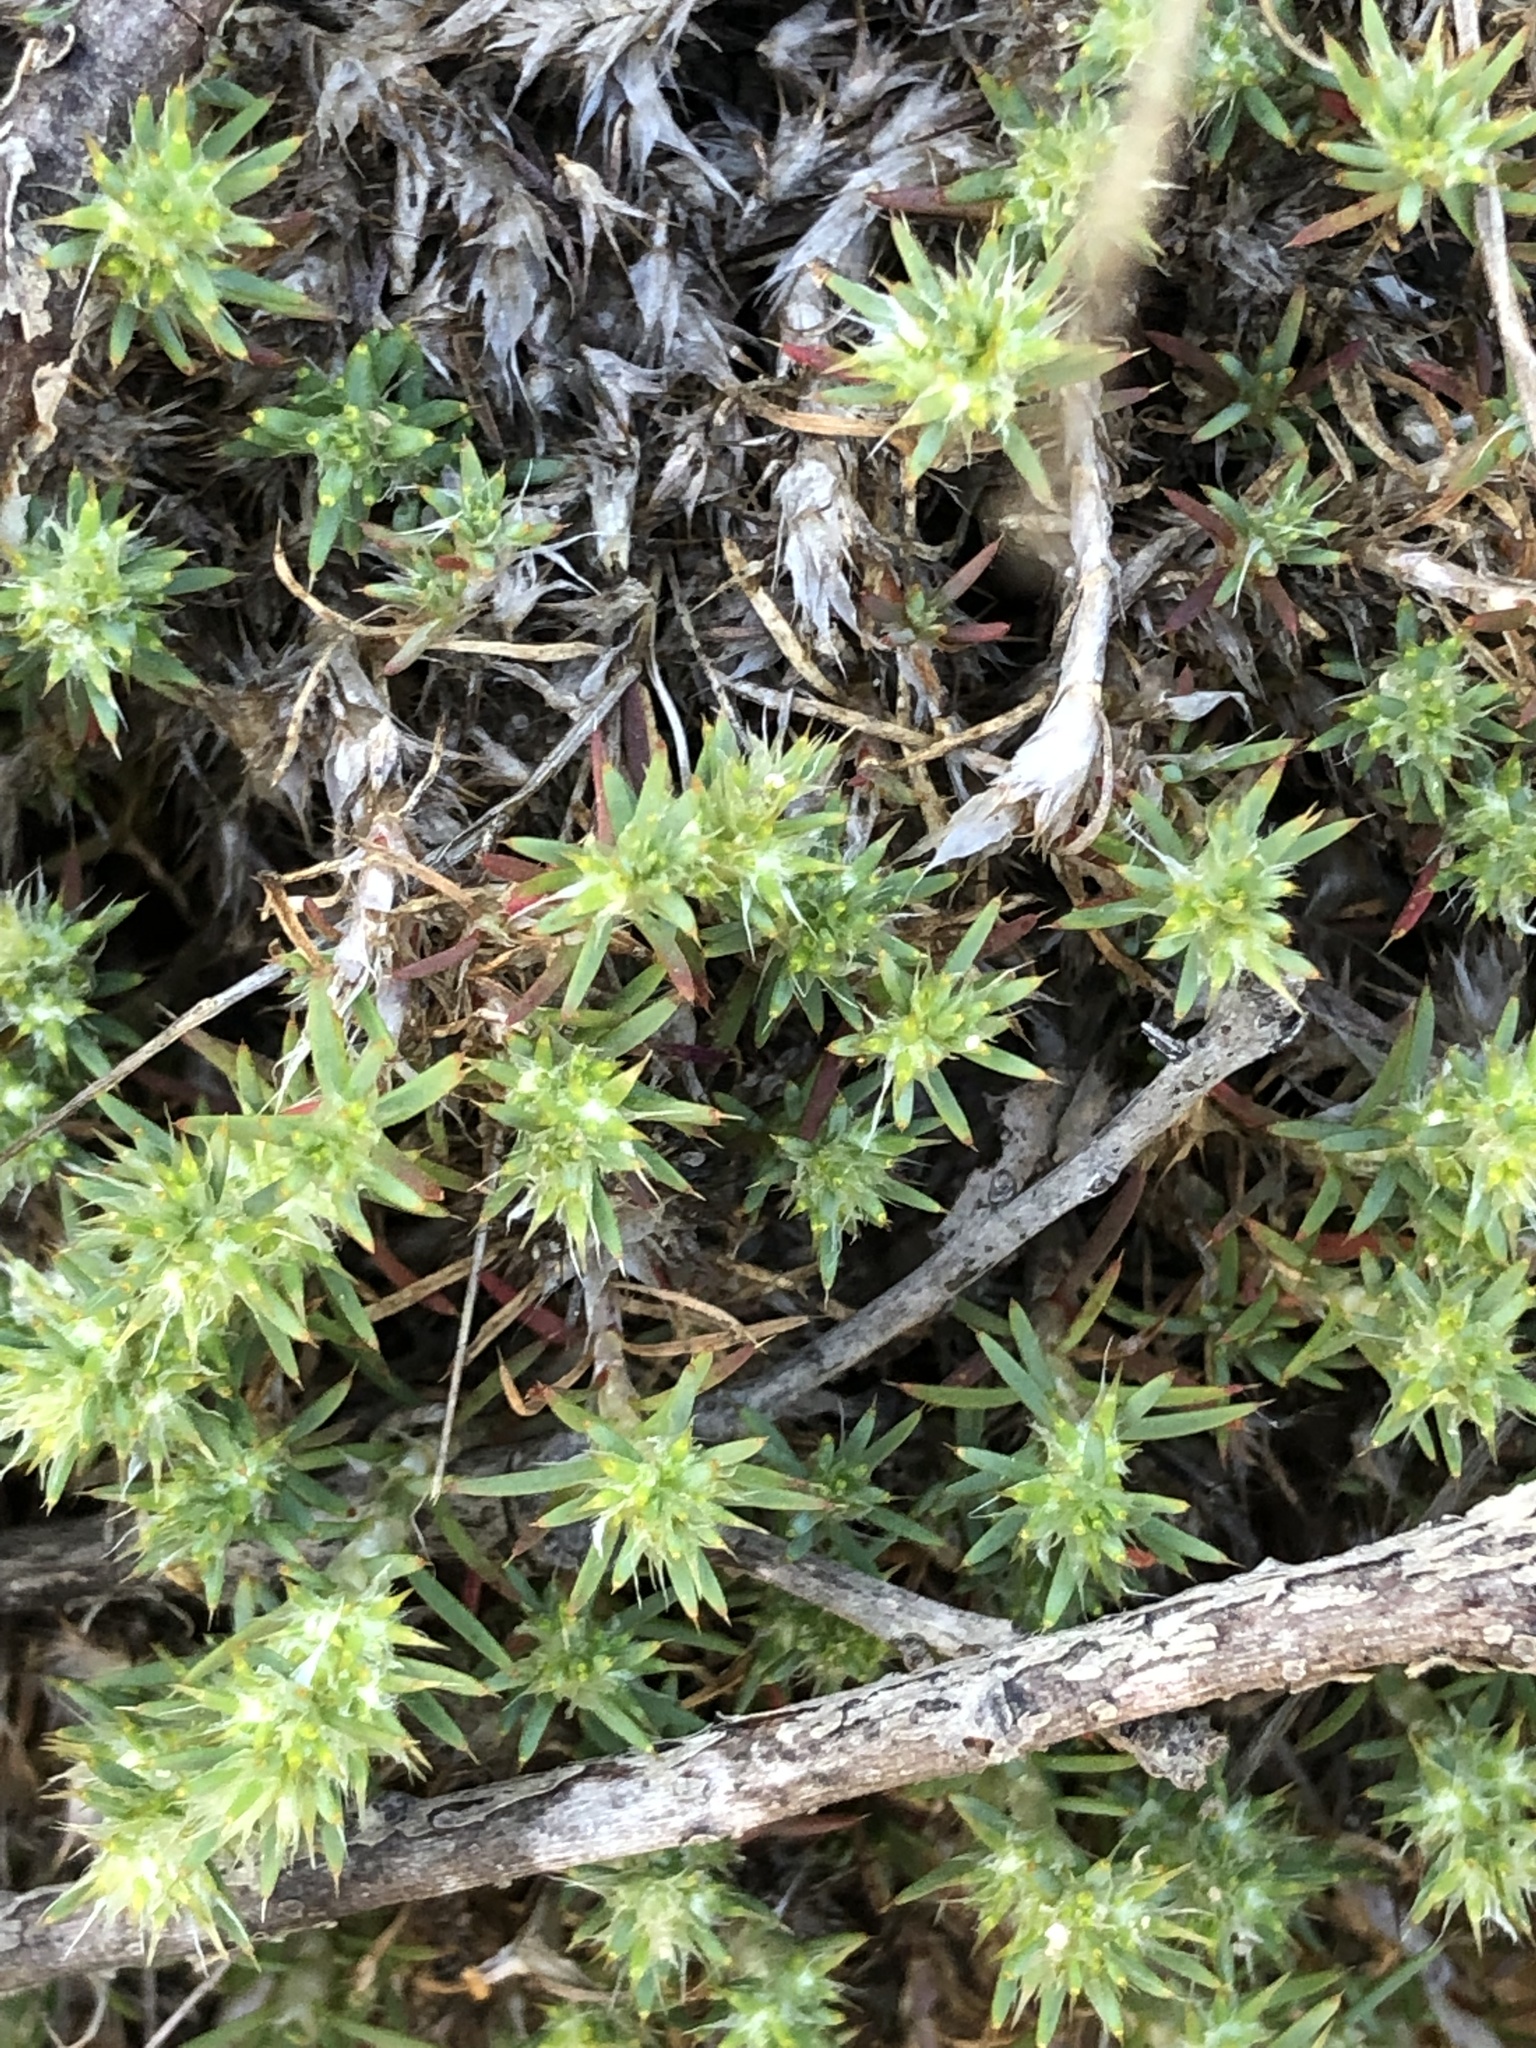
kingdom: Plantae
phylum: Tracheophyta
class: Magnoliopsida
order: Caryophyllales
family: Caryophyllaceae
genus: Cardionema
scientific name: Cardionema ramosissima
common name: Sandcarpet
